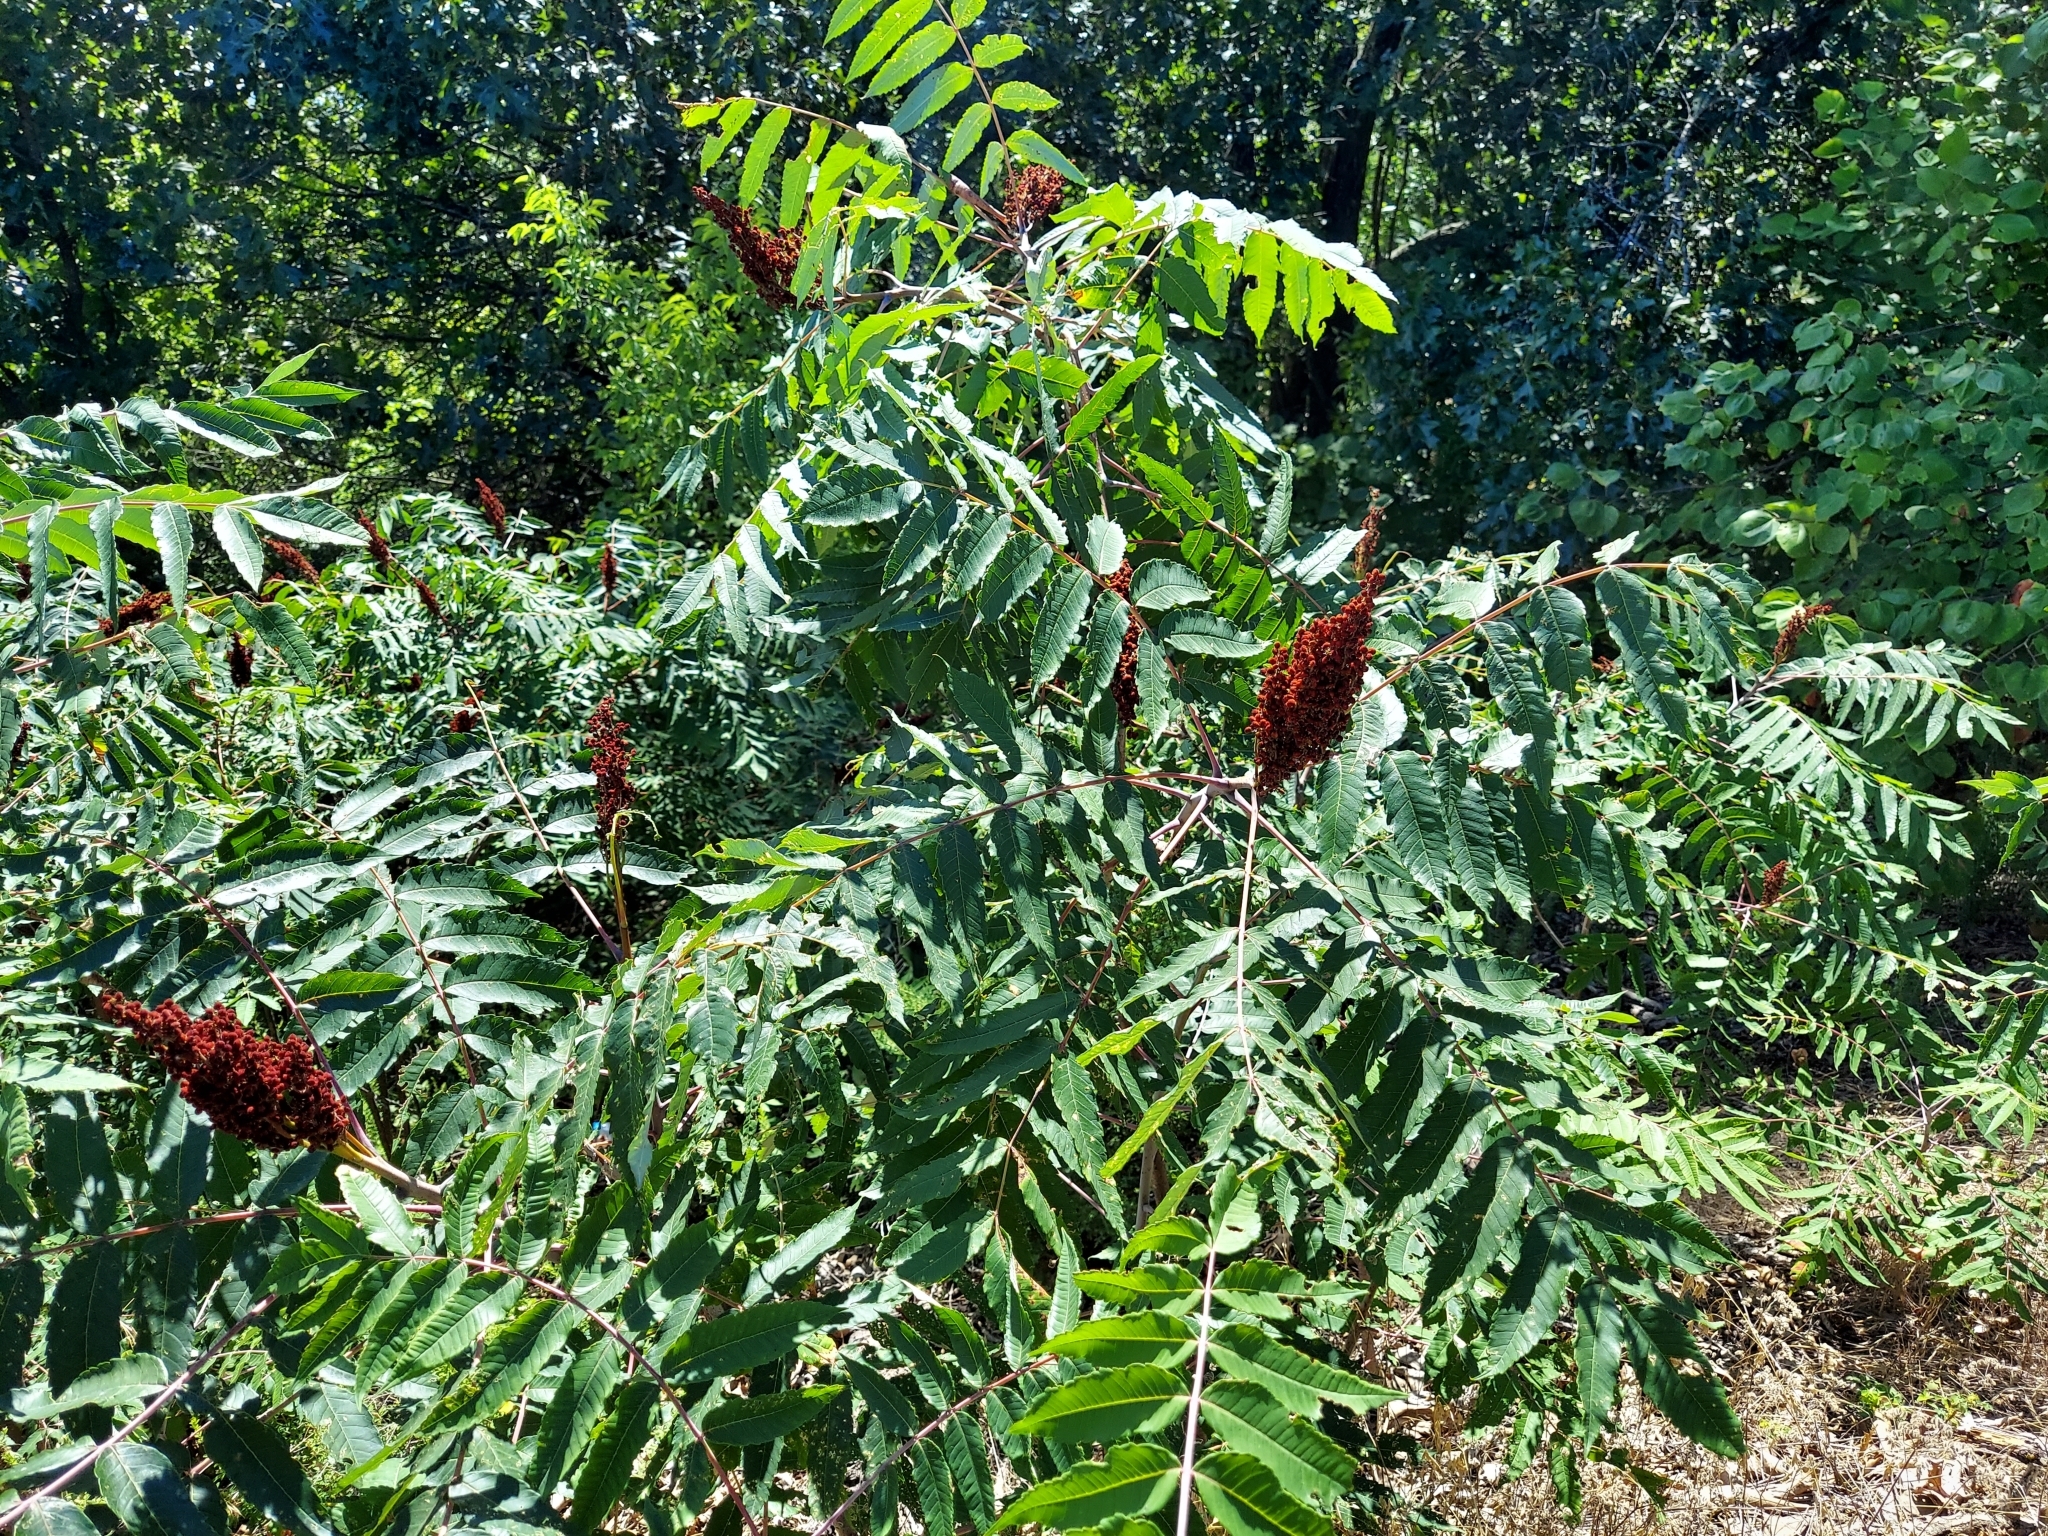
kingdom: Plantae
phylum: Tracheophyta
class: Magnoliopsida
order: Sapindales
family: Anacardiaceae
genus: Rhus
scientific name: Rhus glabra
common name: Scarlet sumac
